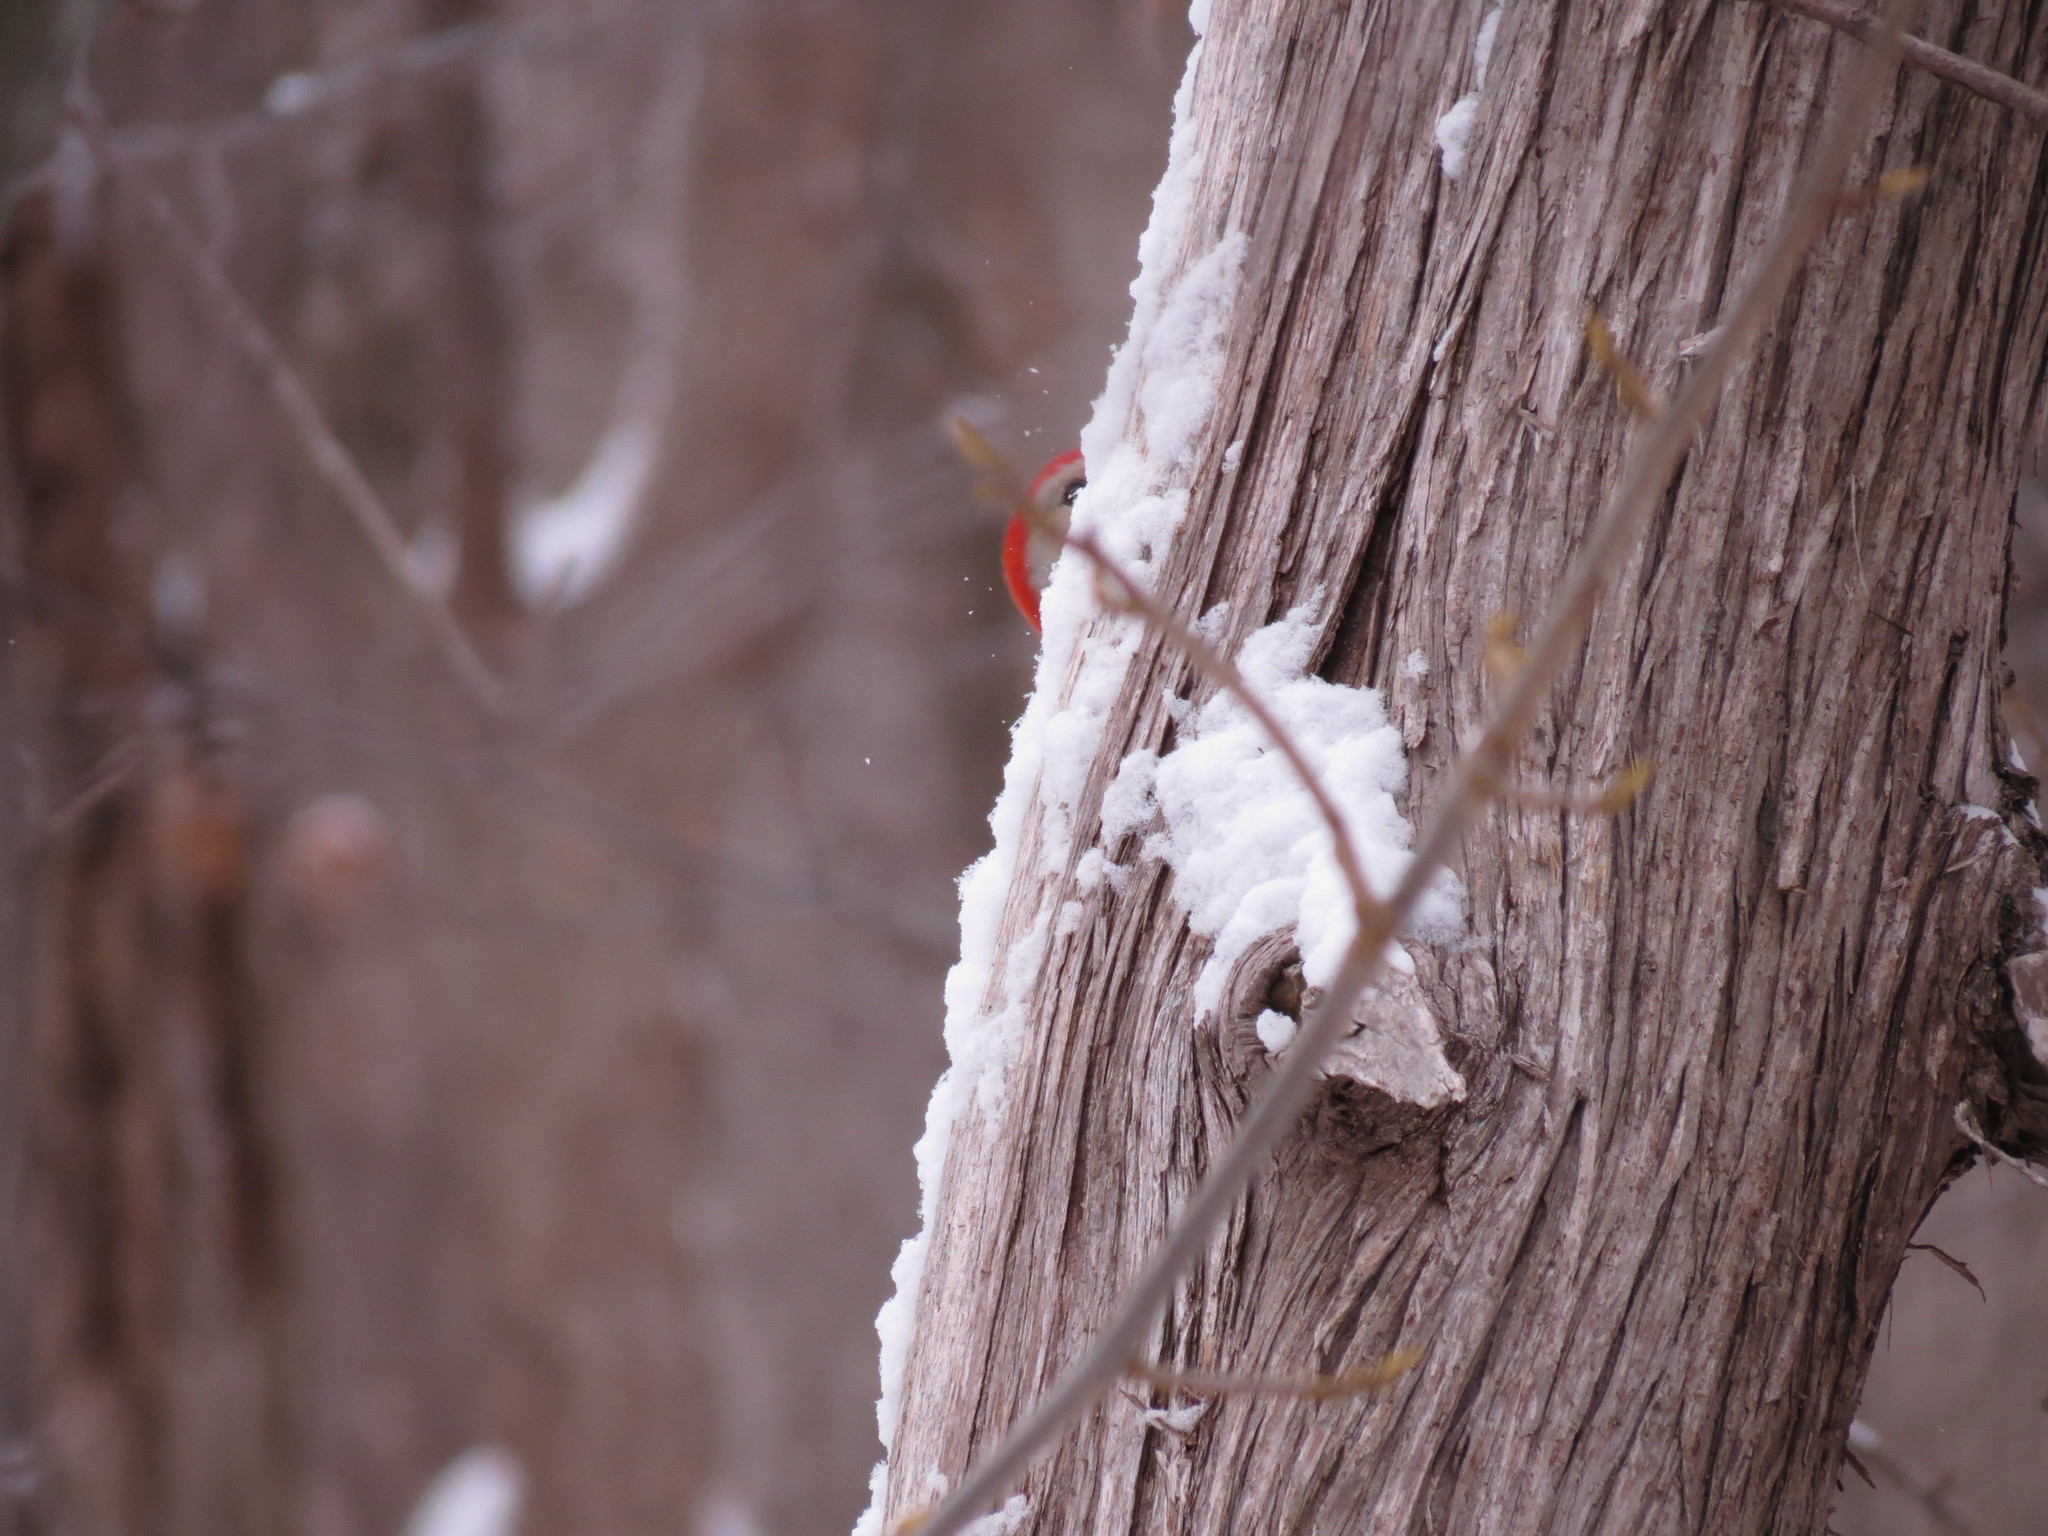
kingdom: Animalia
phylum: Chordata
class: Aves
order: Piciformes
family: Picidae
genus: Melanerpes
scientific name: Melanerpes carolinus
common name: Red-bellied woodpecker
